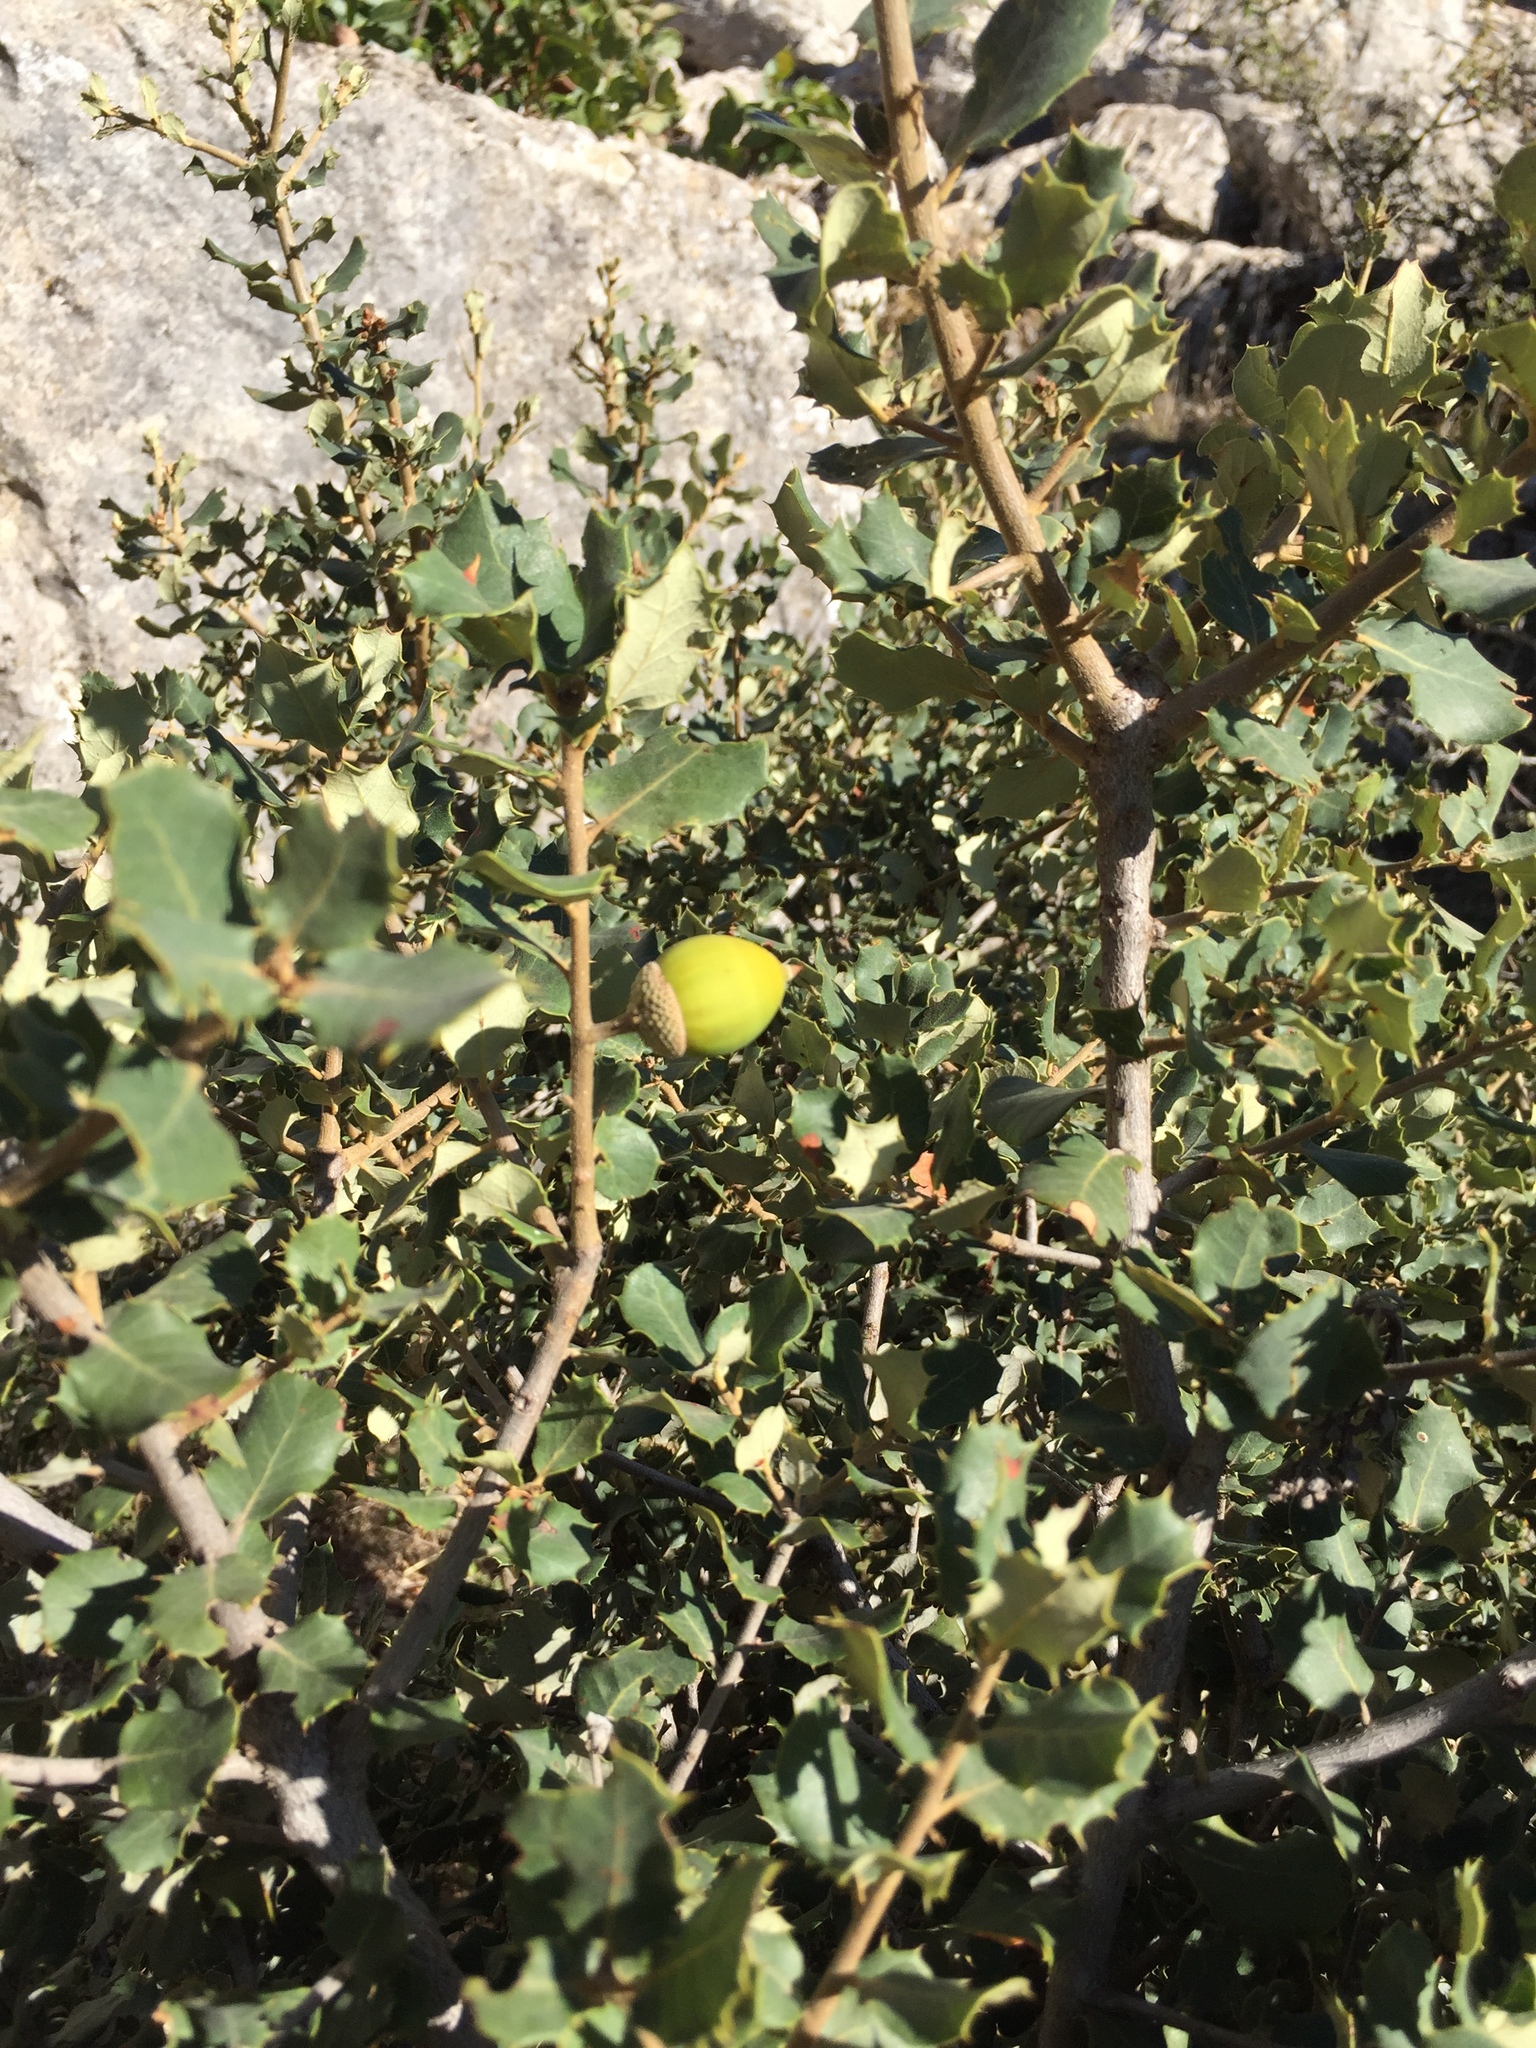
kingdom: Plantae
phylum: Tracheophyta
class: Magnoliopsida
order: Fagales
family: Fagaceae
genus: Quercus
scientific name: Quercus rotundifolia
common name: Holm oak
